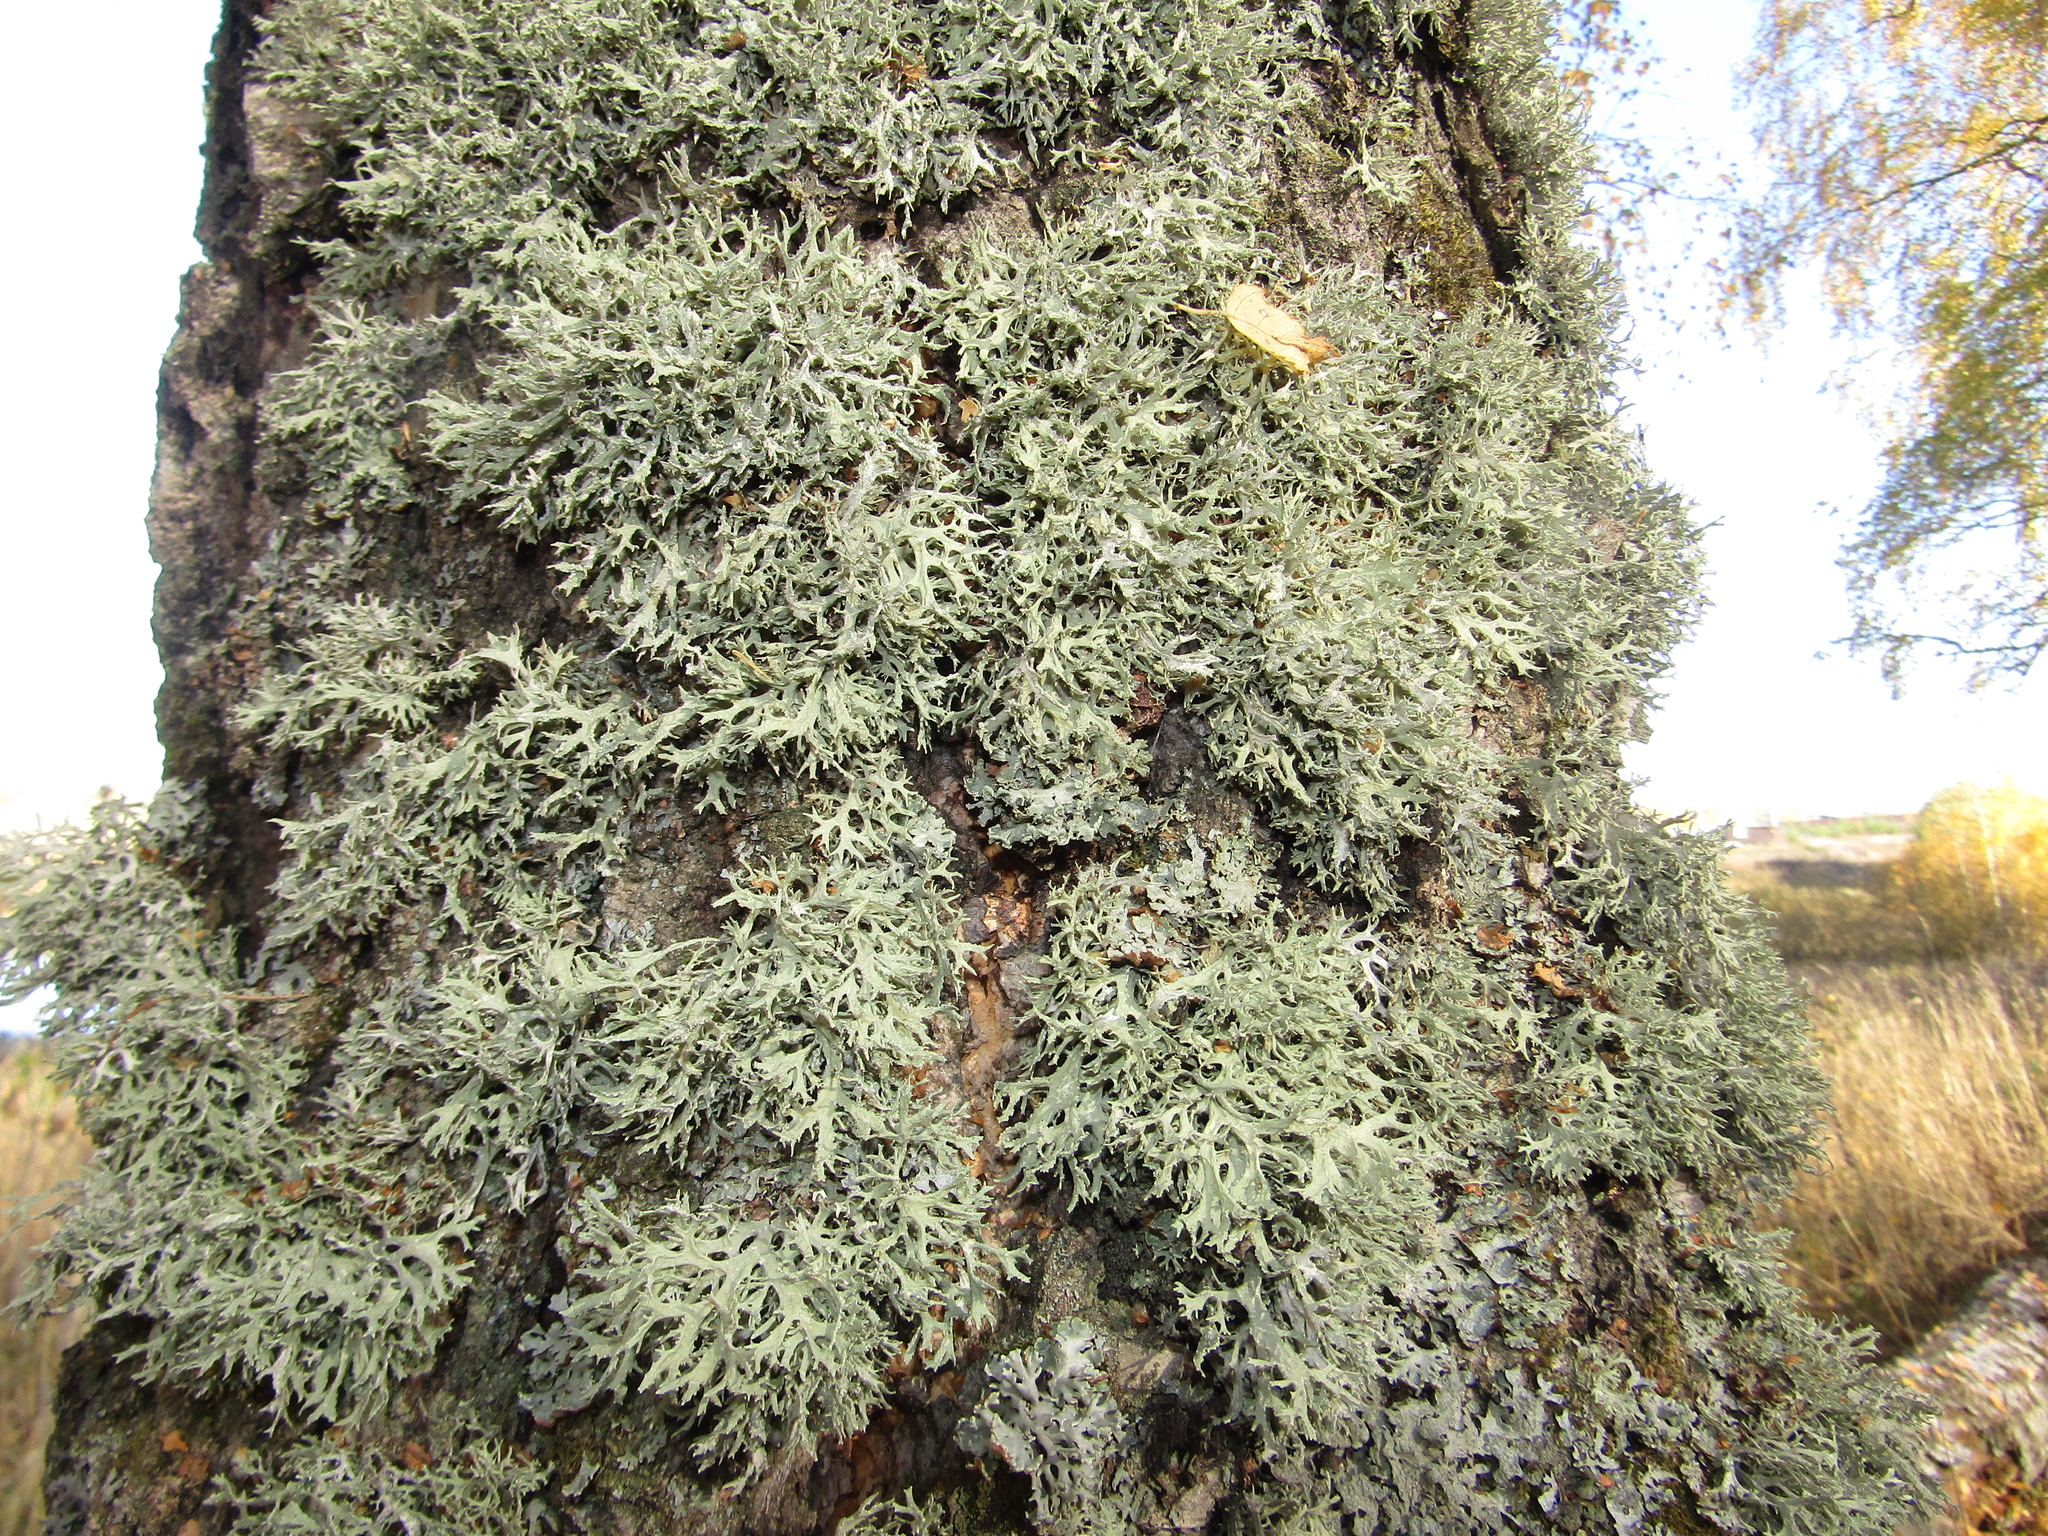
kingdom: Fungi
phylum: Ascomycota
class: Lecanoromycetes
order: Lecanorales
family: Parmeliaceae
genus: Evernia
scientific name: Evernia prunastri
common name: Oak moss
